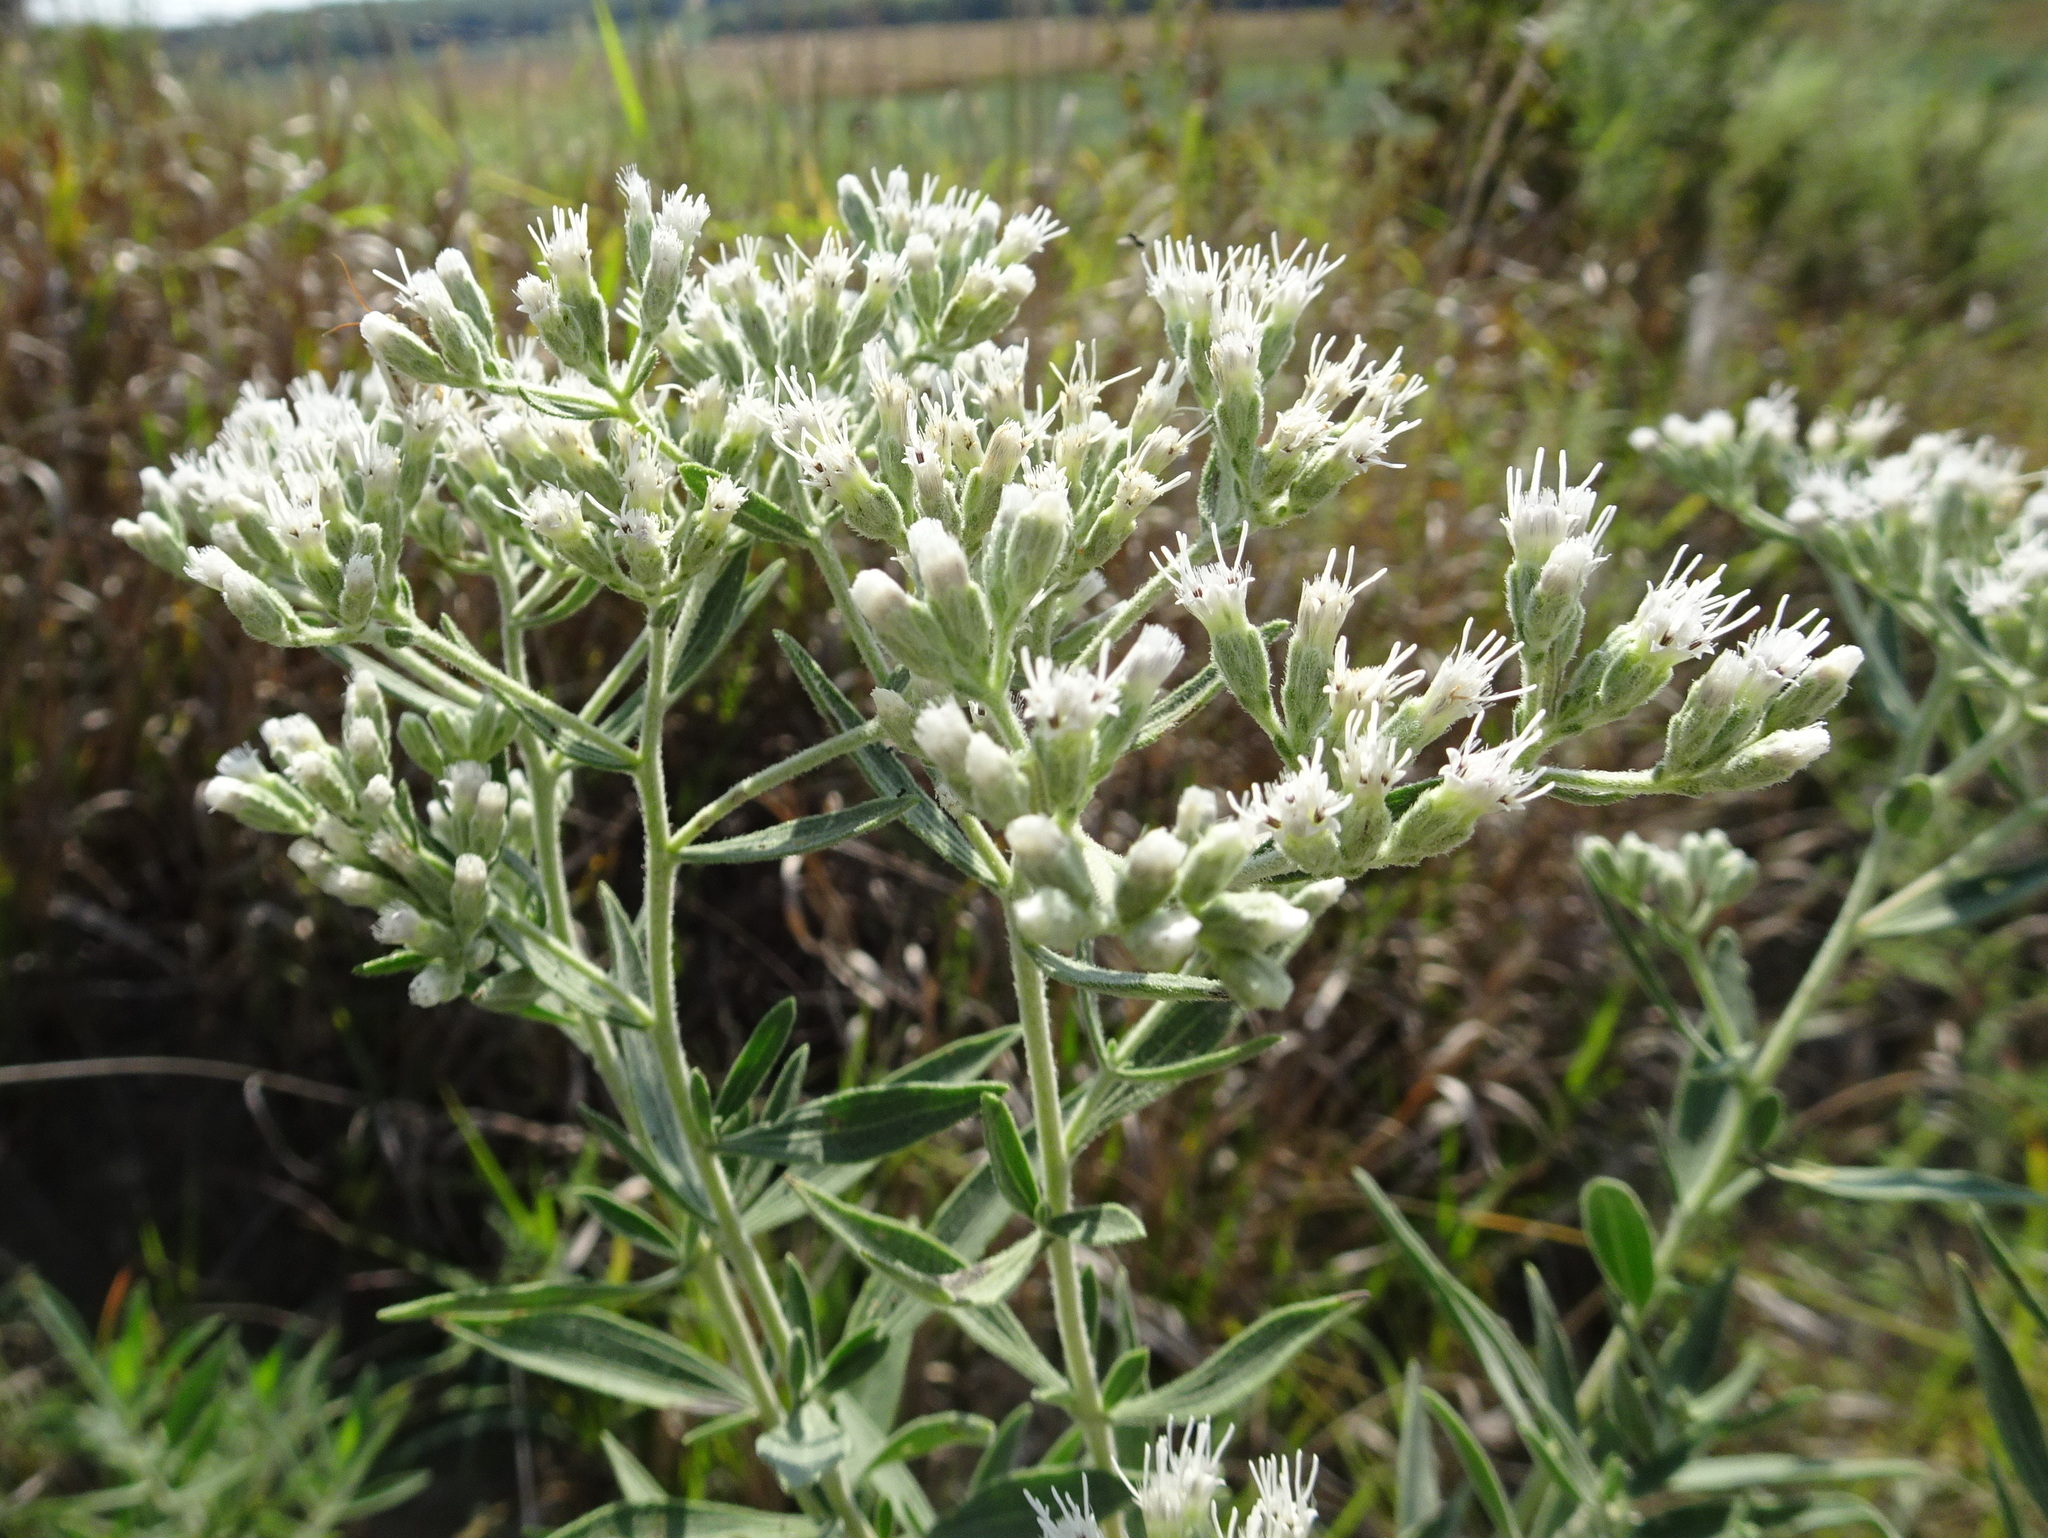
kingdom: Plantae
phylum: Tracheophyta
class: Magnoliopsida
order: Asterales
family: Asteraceae
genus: Eupatorium
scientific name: Eupatorium altissimum
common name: Tall thoroughwort
